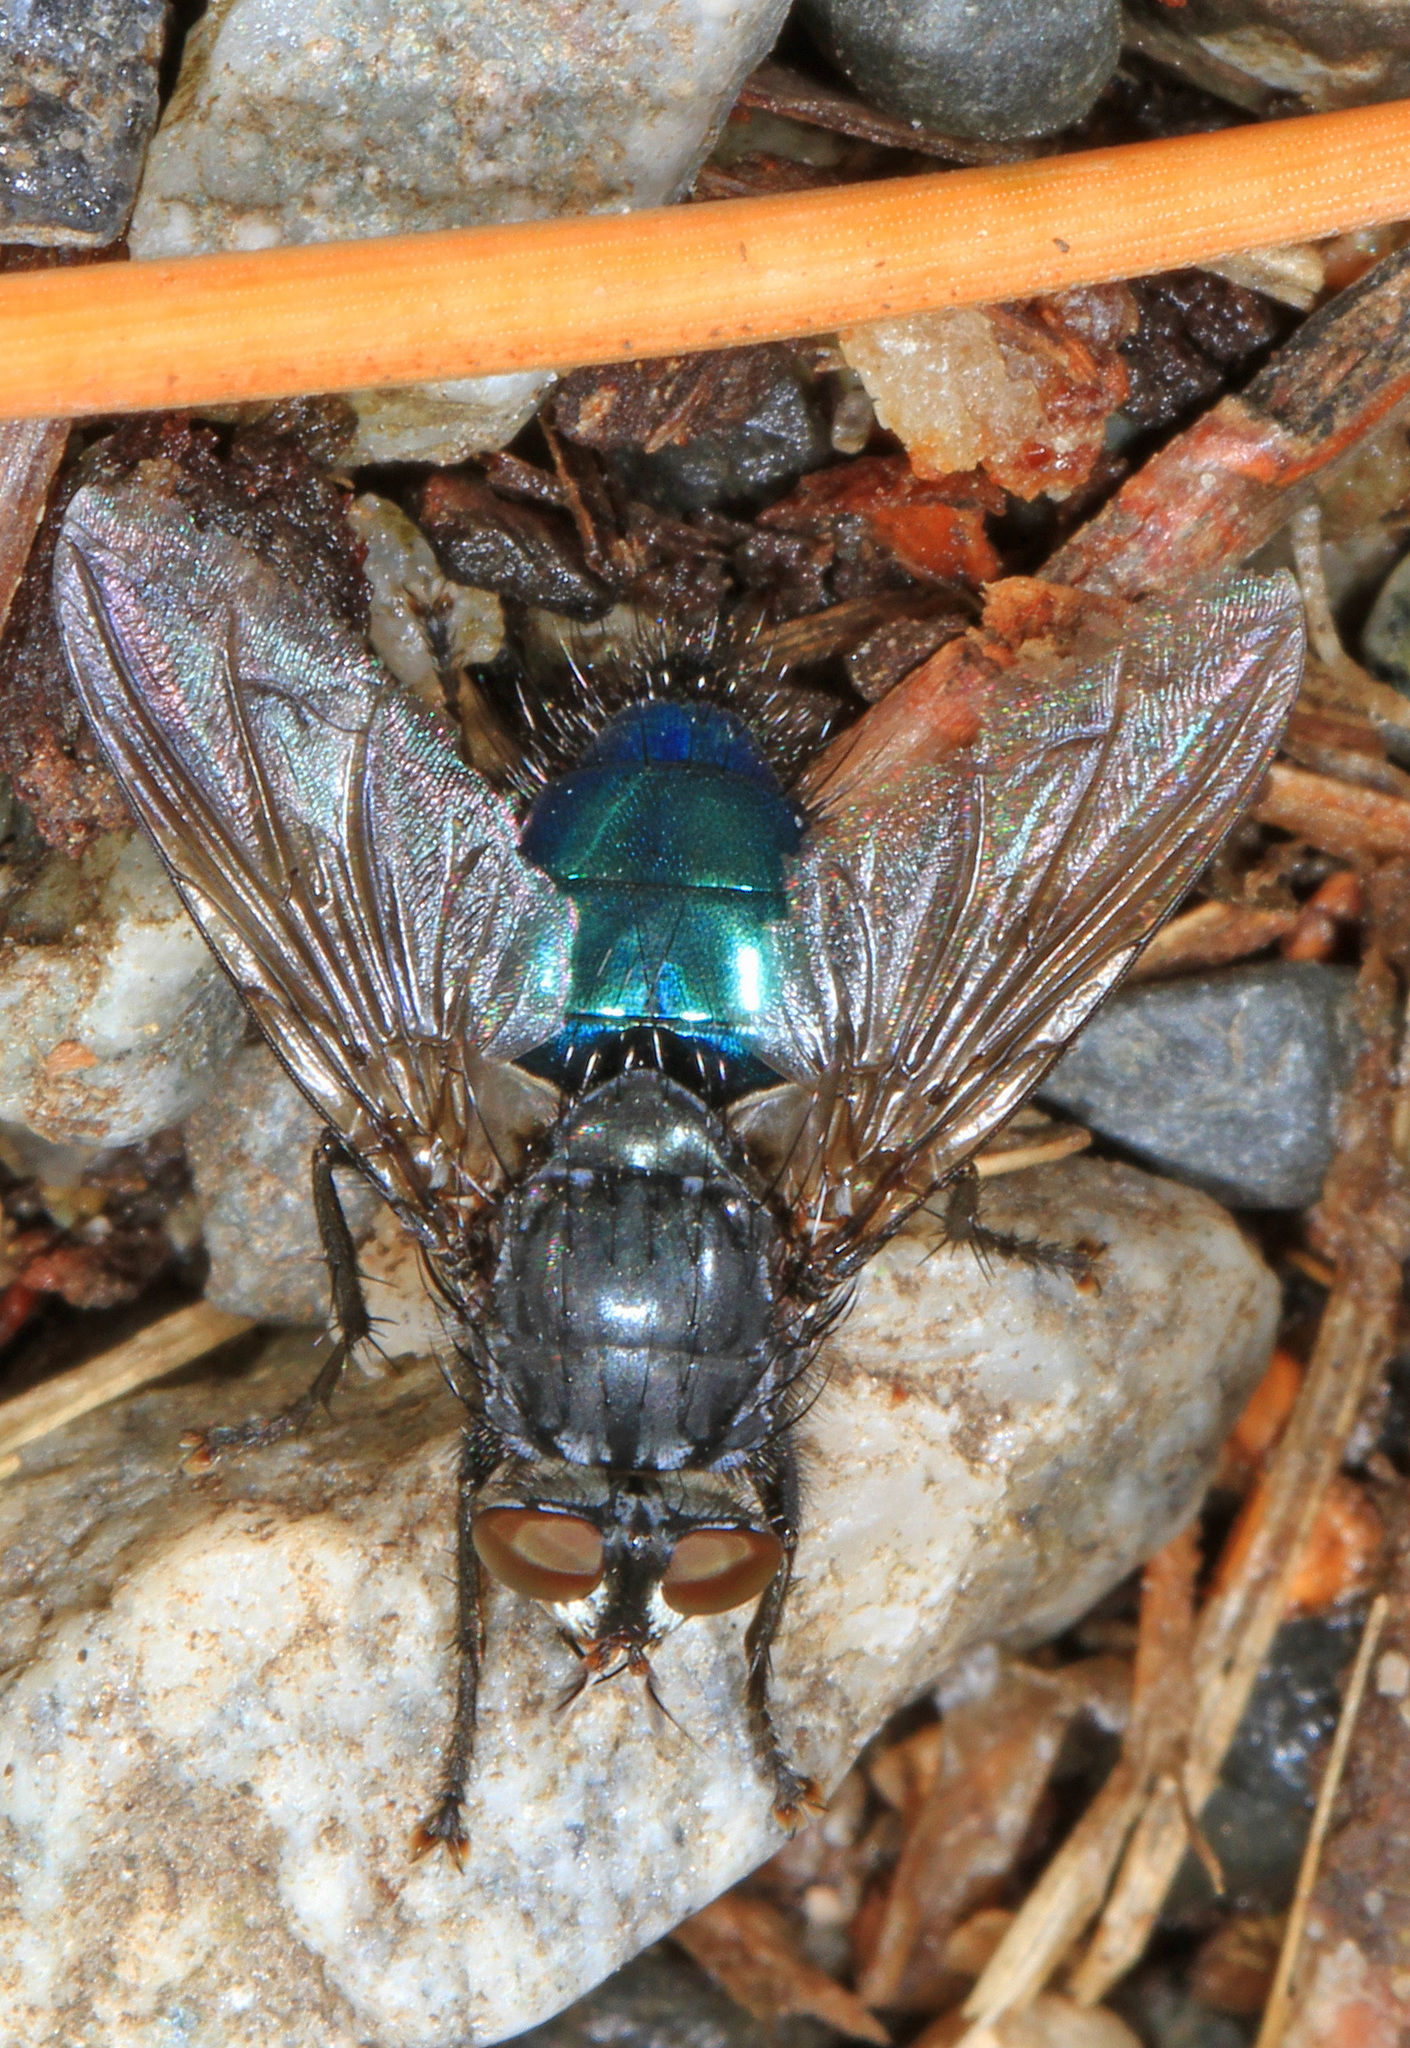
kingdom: Animalia
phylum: Arthropoda
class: Insecta
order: Diptera
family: Calliphoridae
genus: Cynomya
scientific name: Cynomya cadaverina
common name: Shiny blue bottle fly
